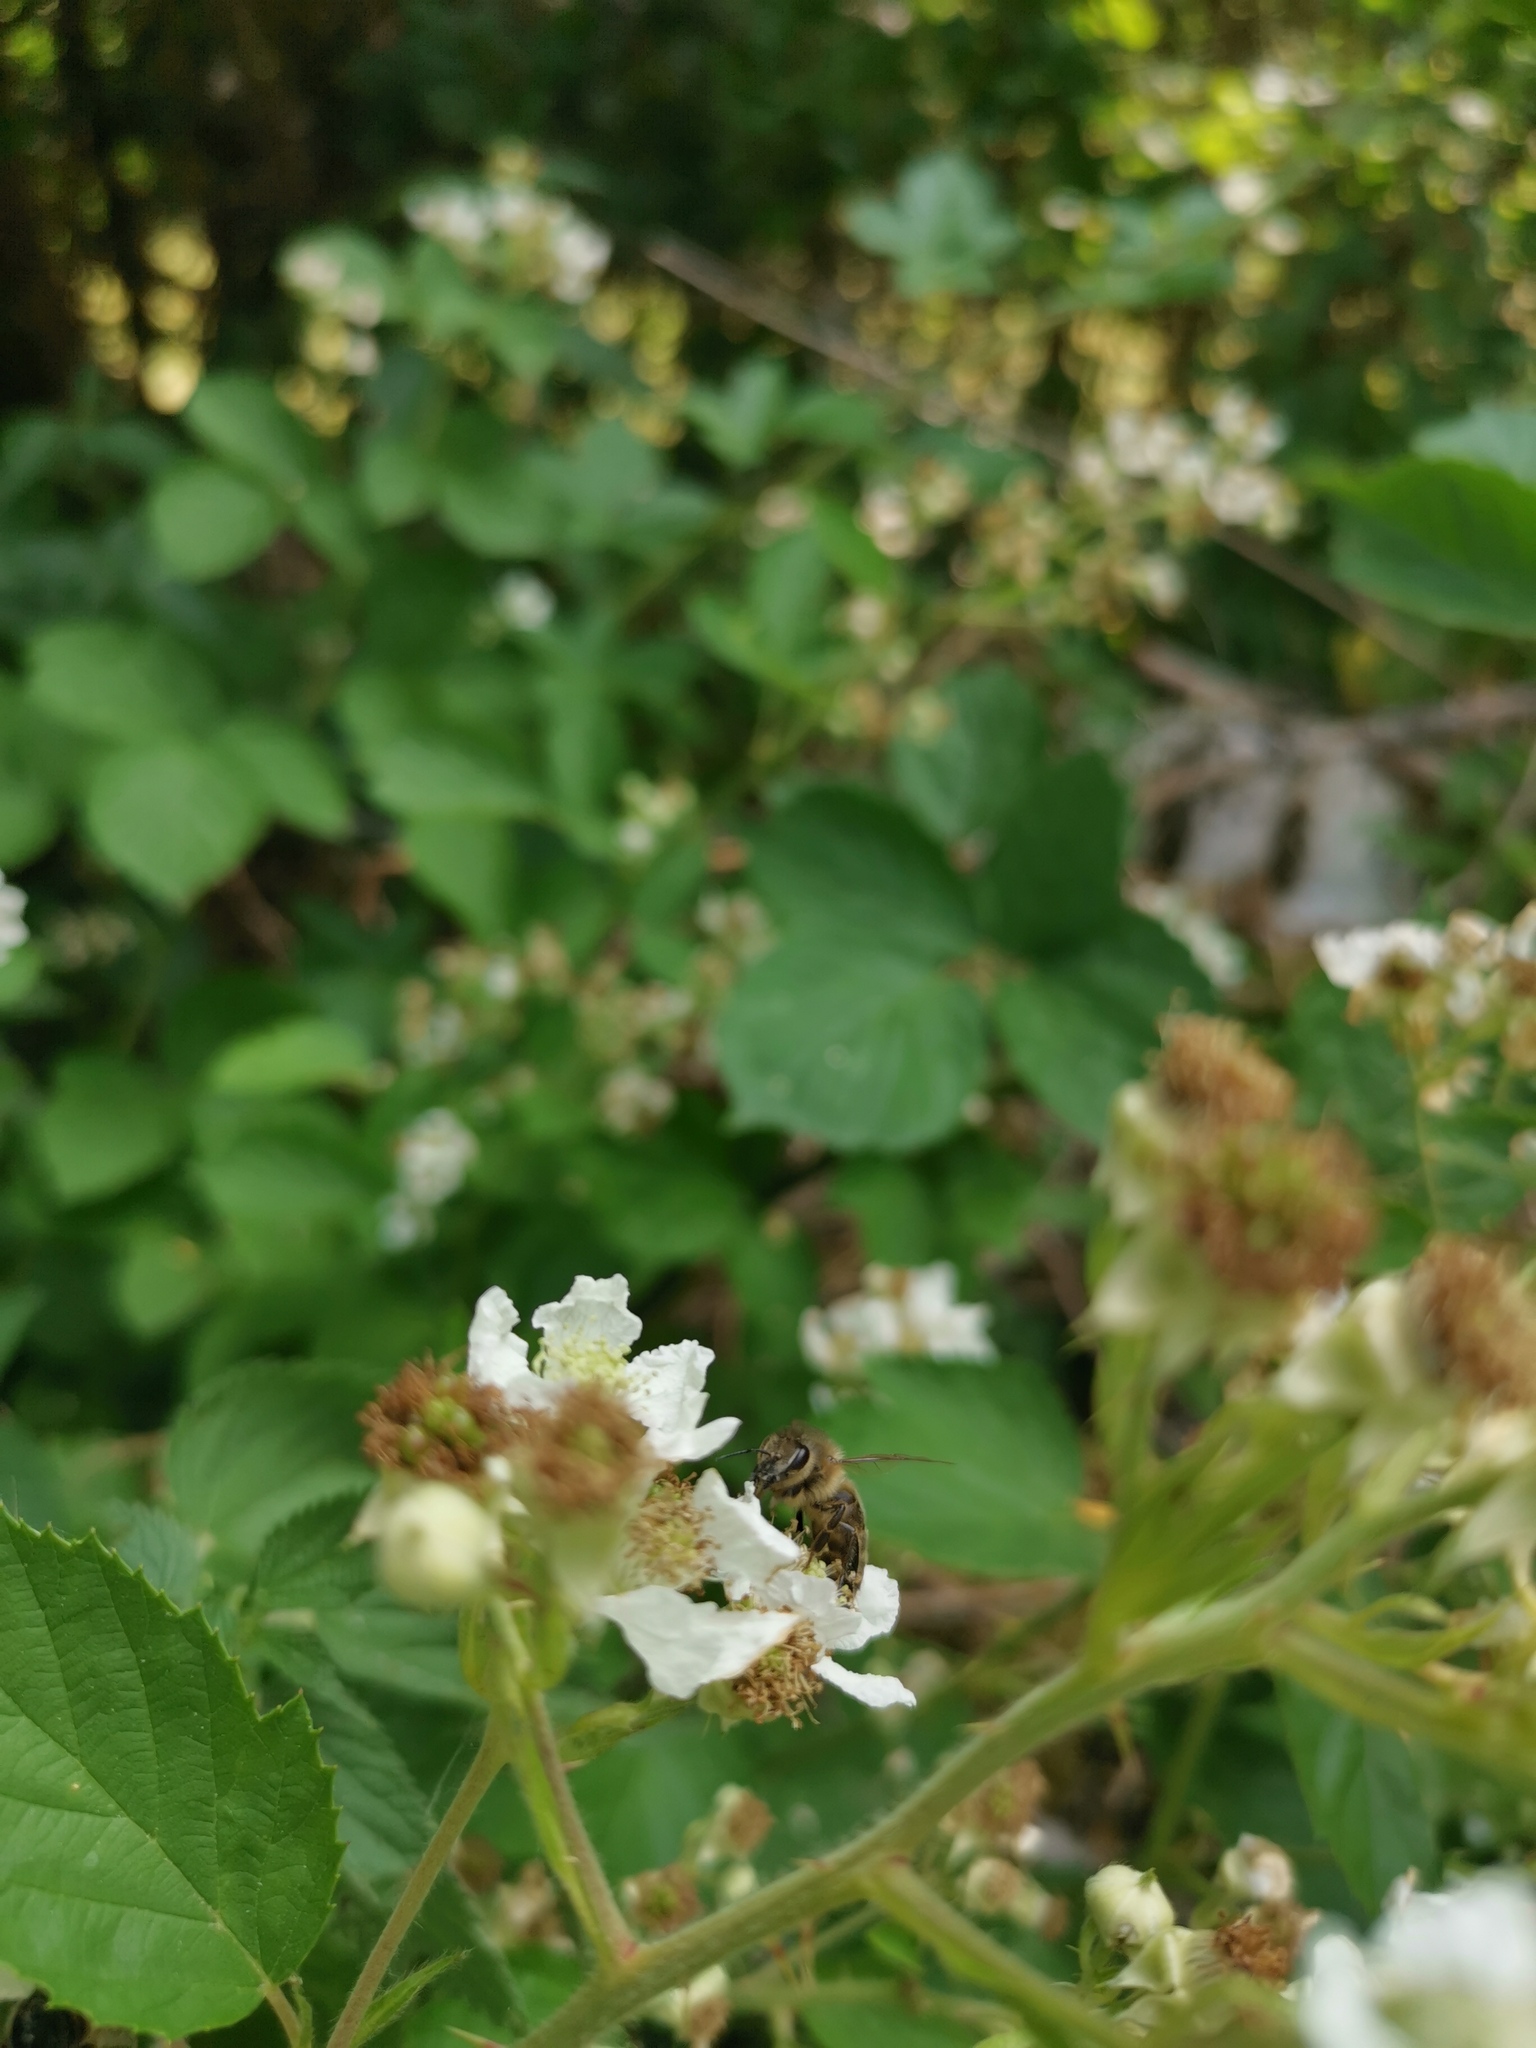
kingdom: Animalia
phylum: Arthropoda
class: Insecta
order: Hymenoptera
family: Apidae
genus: Apis
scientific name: Apis mellifera
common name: Honey bee
